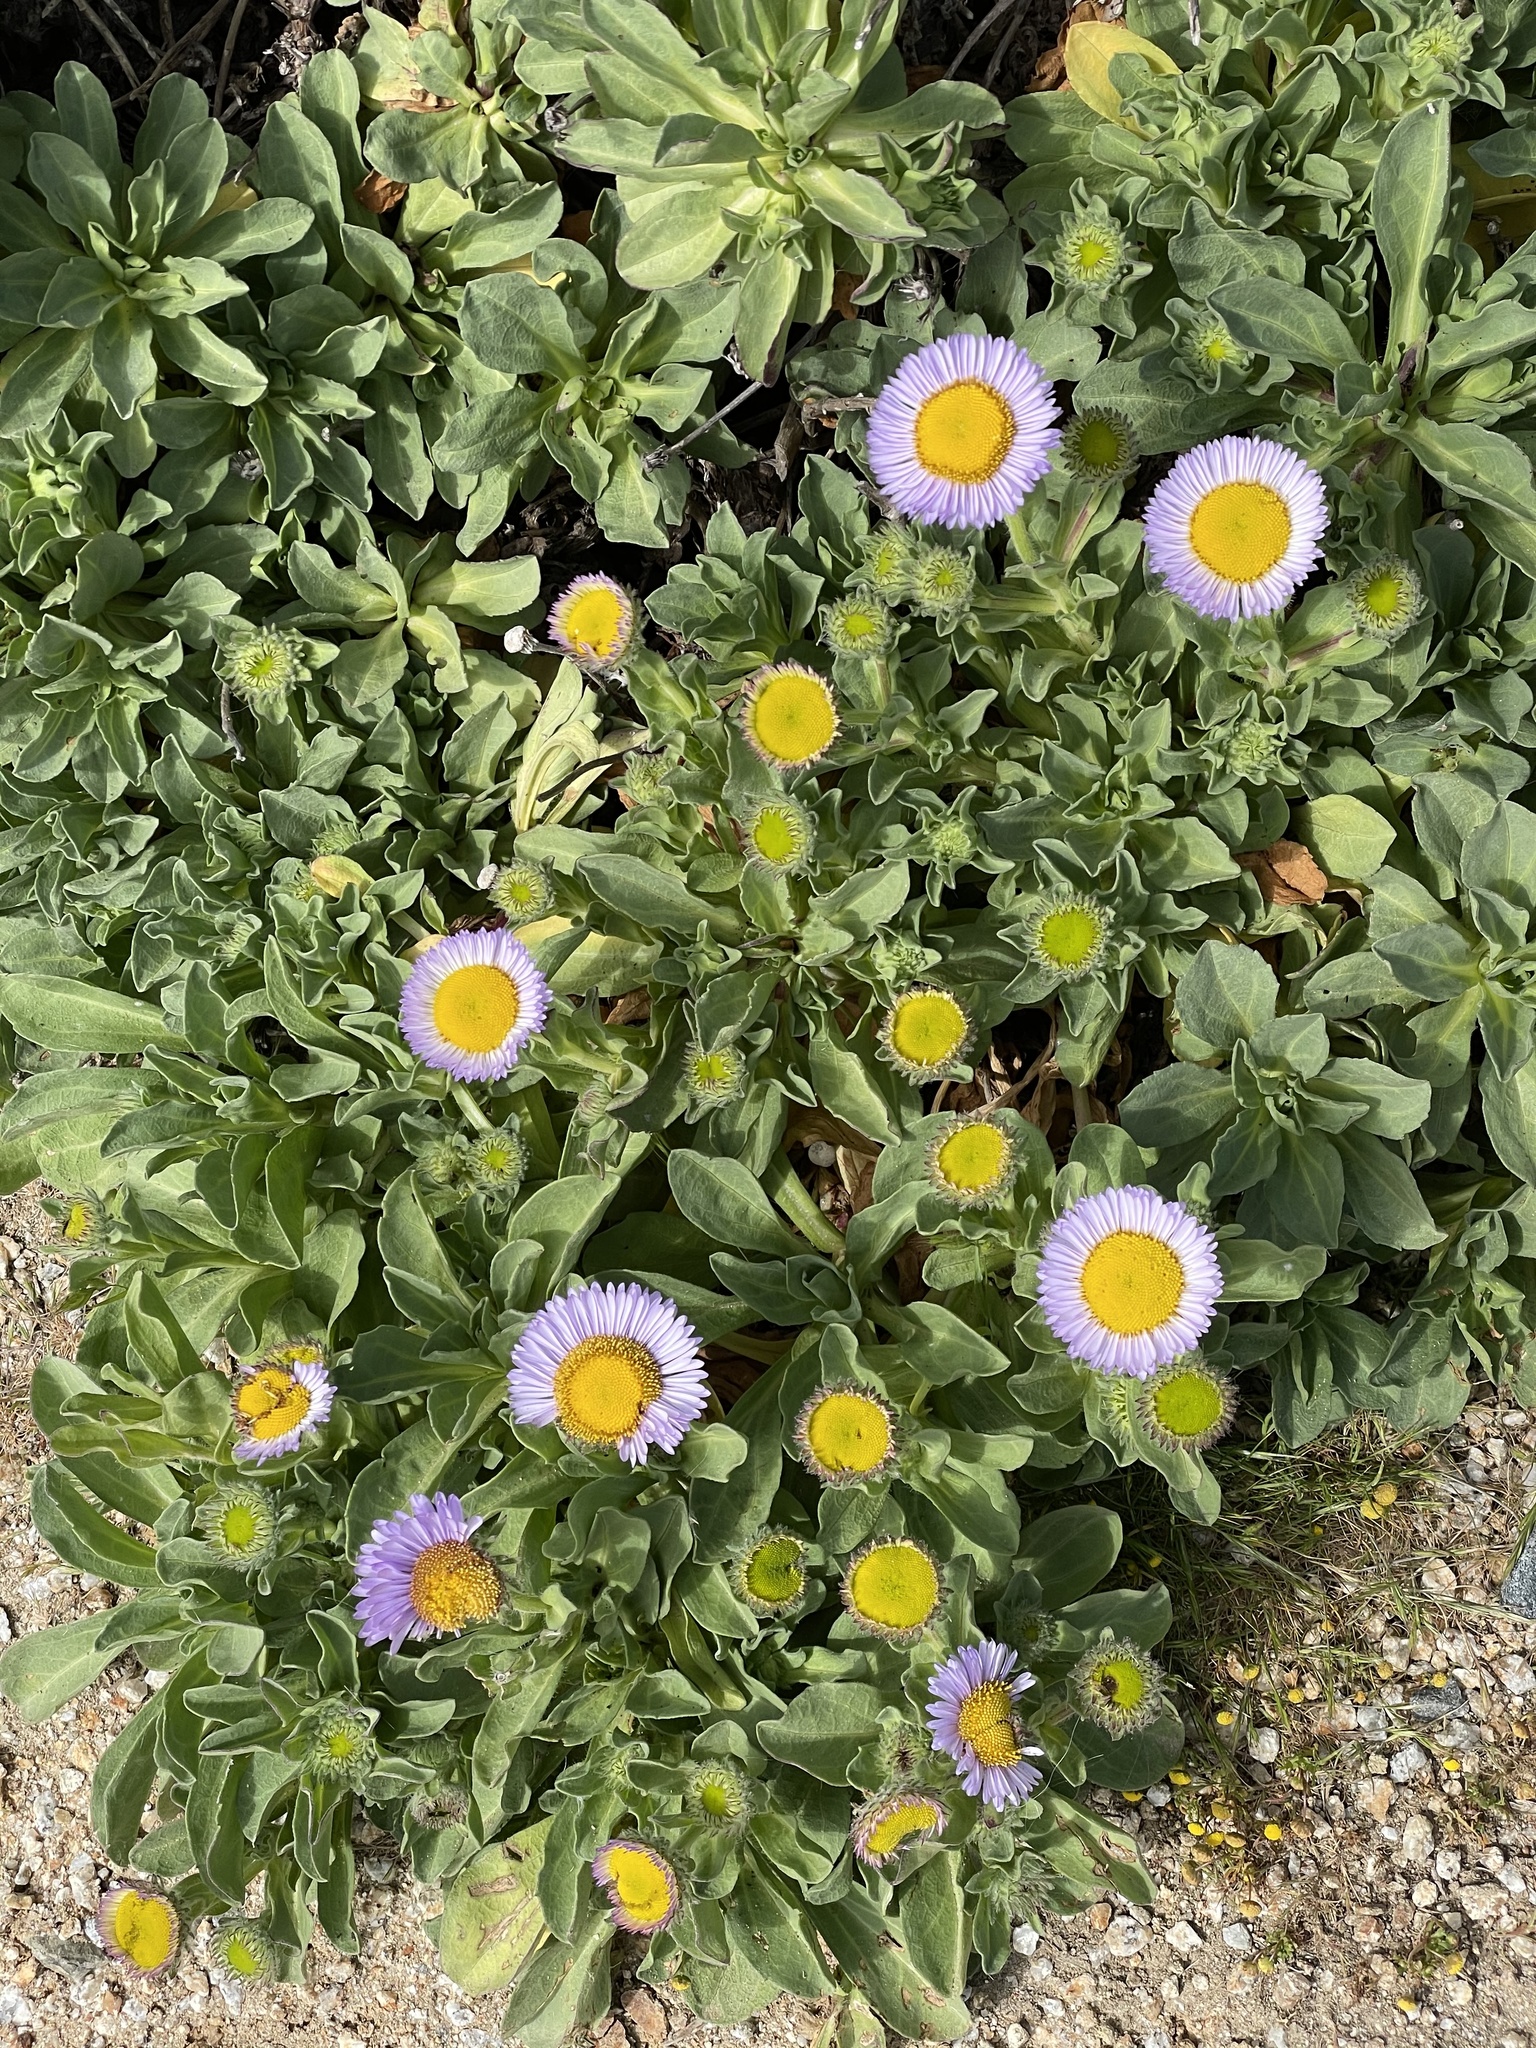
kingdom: Plantae
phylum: Tracheophyta
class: Magnoliopsida
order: Asterales
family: Asteraceae
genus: Erigeron
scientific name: Erigeron glaucus
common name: Seaside daisy
